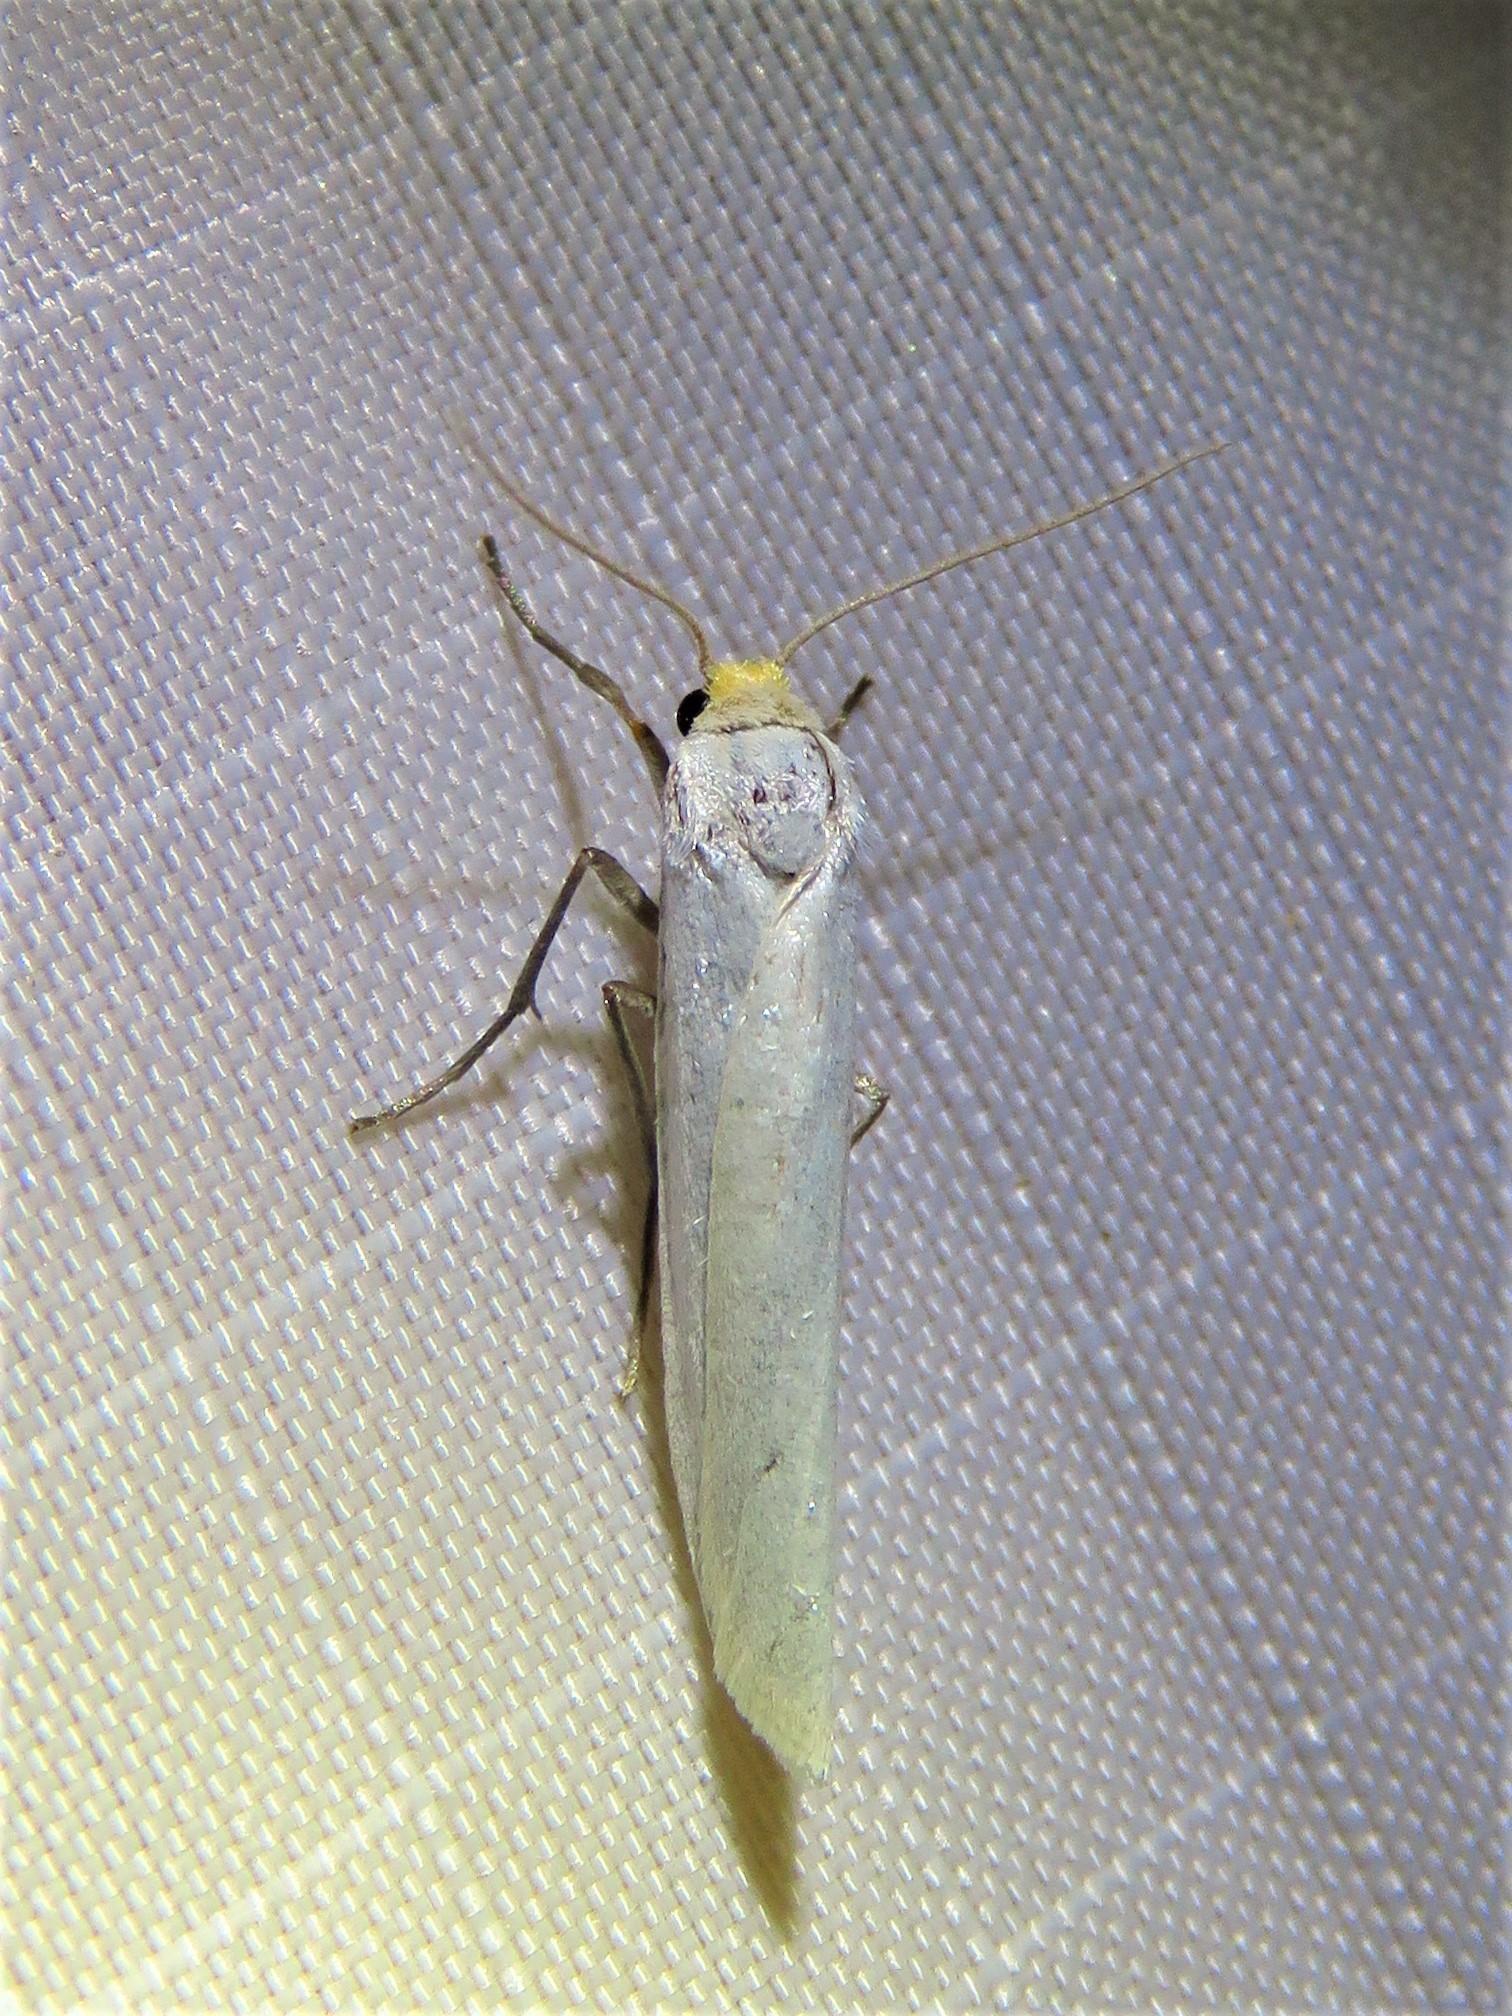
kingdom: Animalia
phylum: Arthropoda
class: Insecta
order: Lepidoptera
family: Erebidae
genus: Crambidia
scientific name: Crambidia cephalica
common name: Yellow-headed lichen moth
